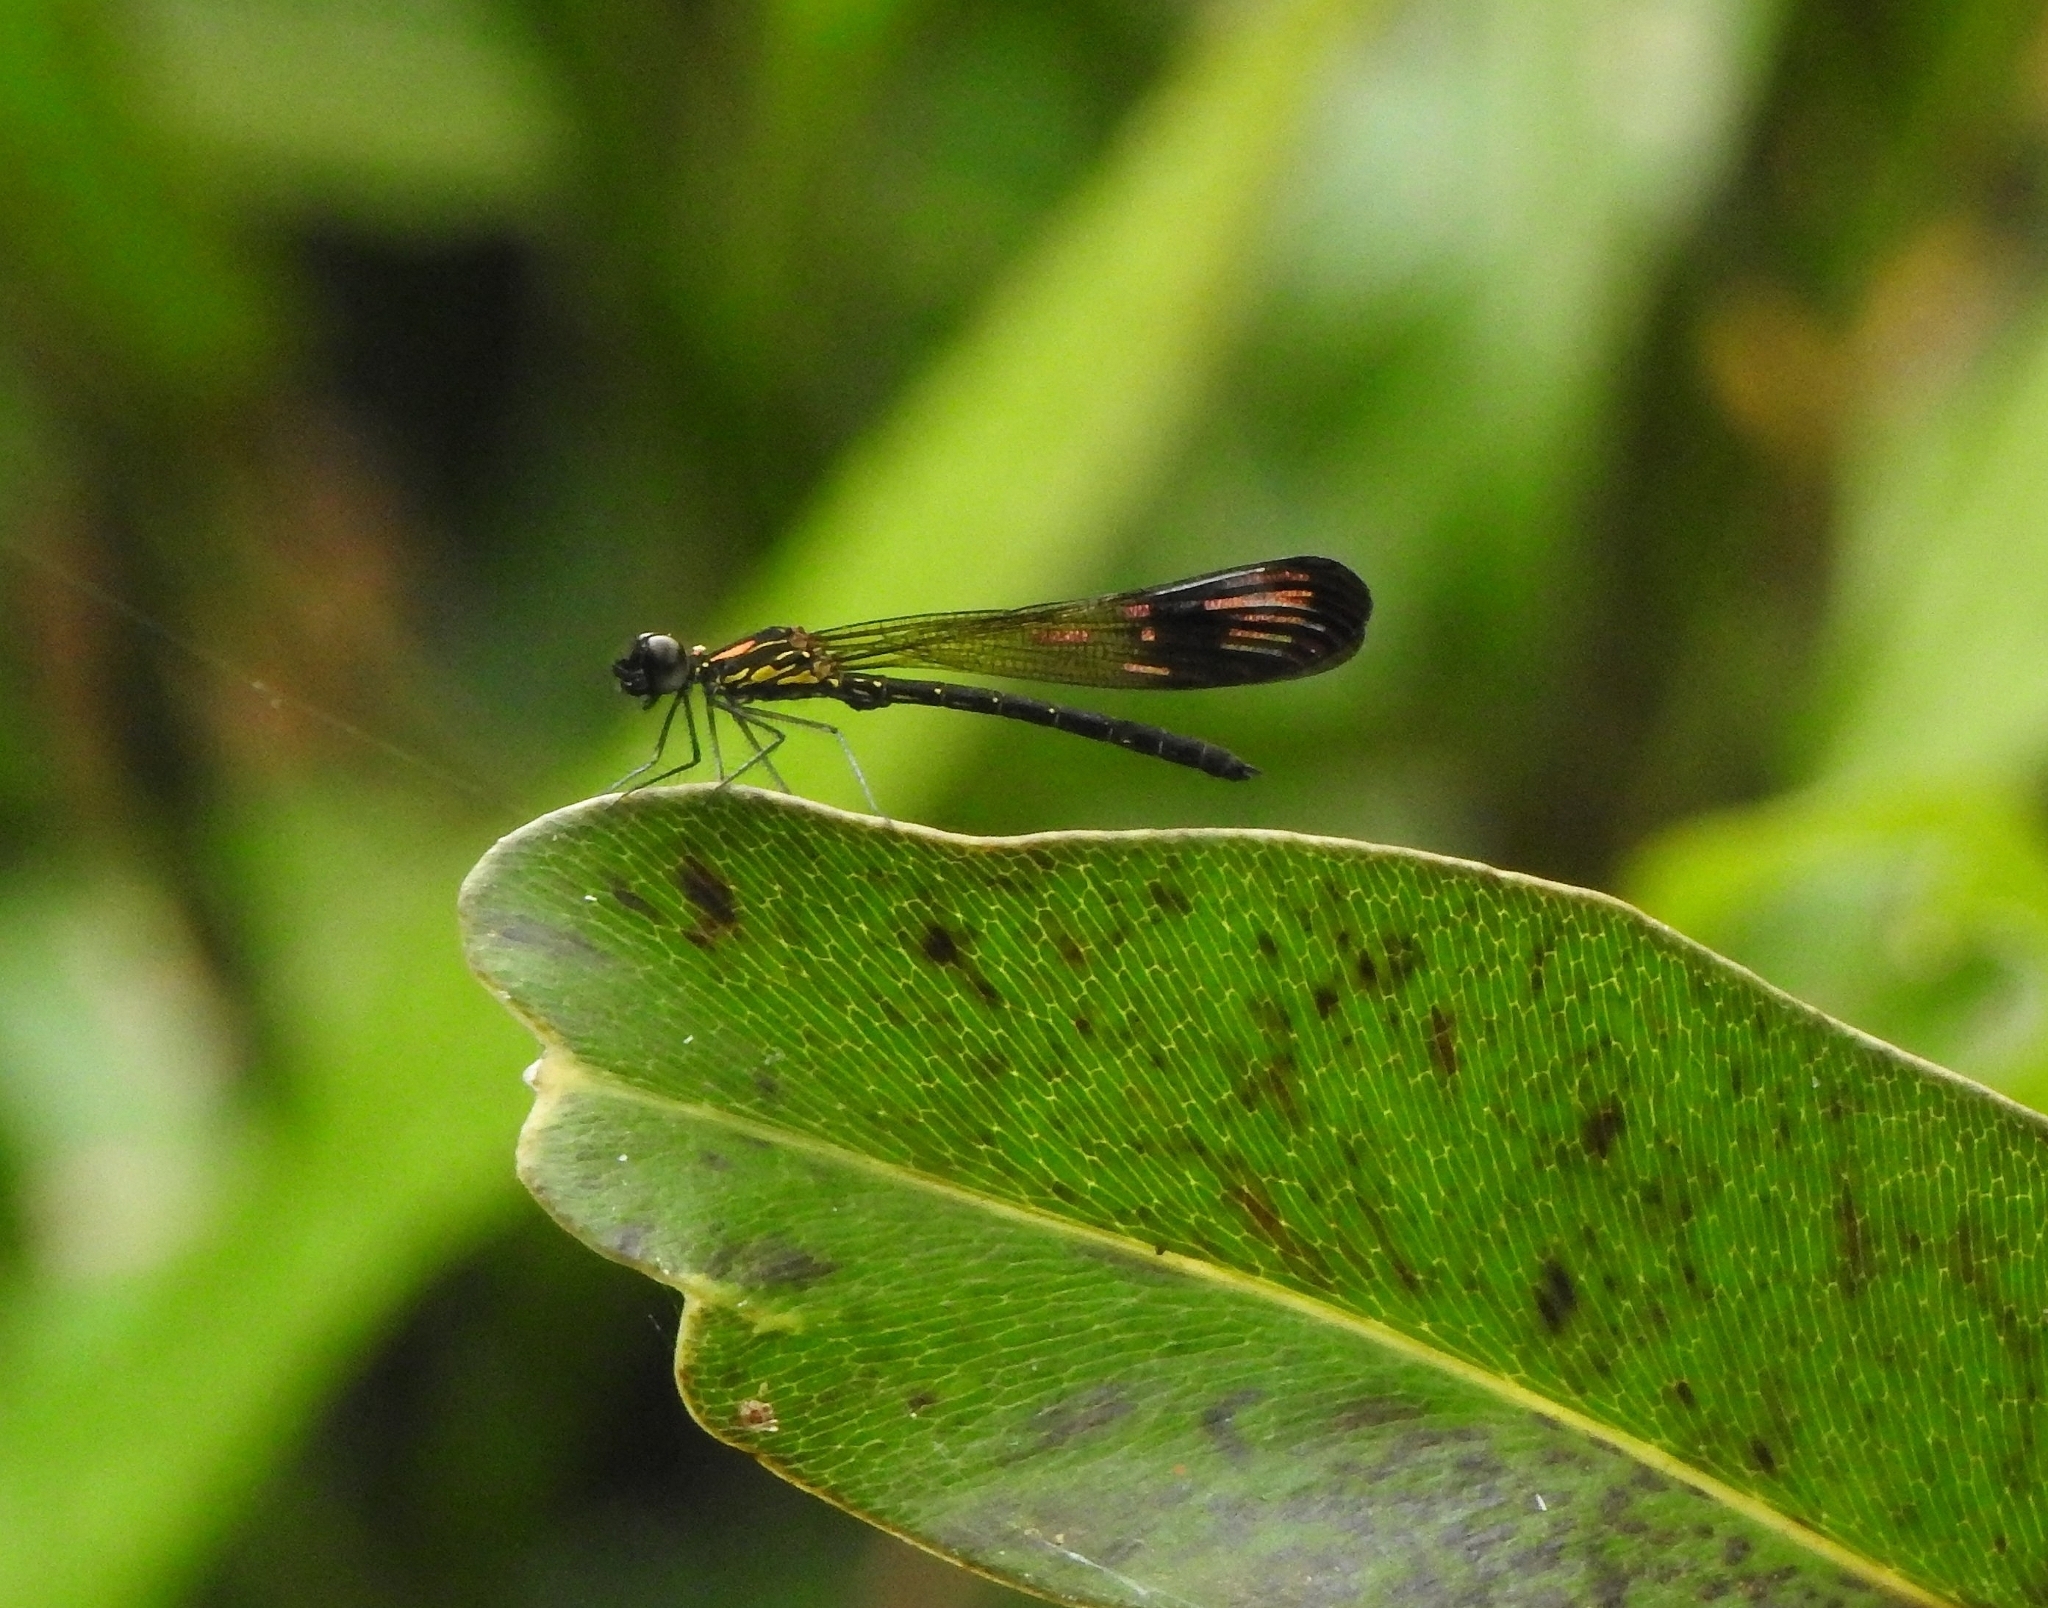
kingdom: Animalia
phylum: Arthropoda
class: Insecta
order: Odonata
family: Chlorocyphidae
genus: Heliocypha
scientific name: Heliocypha bisignata
